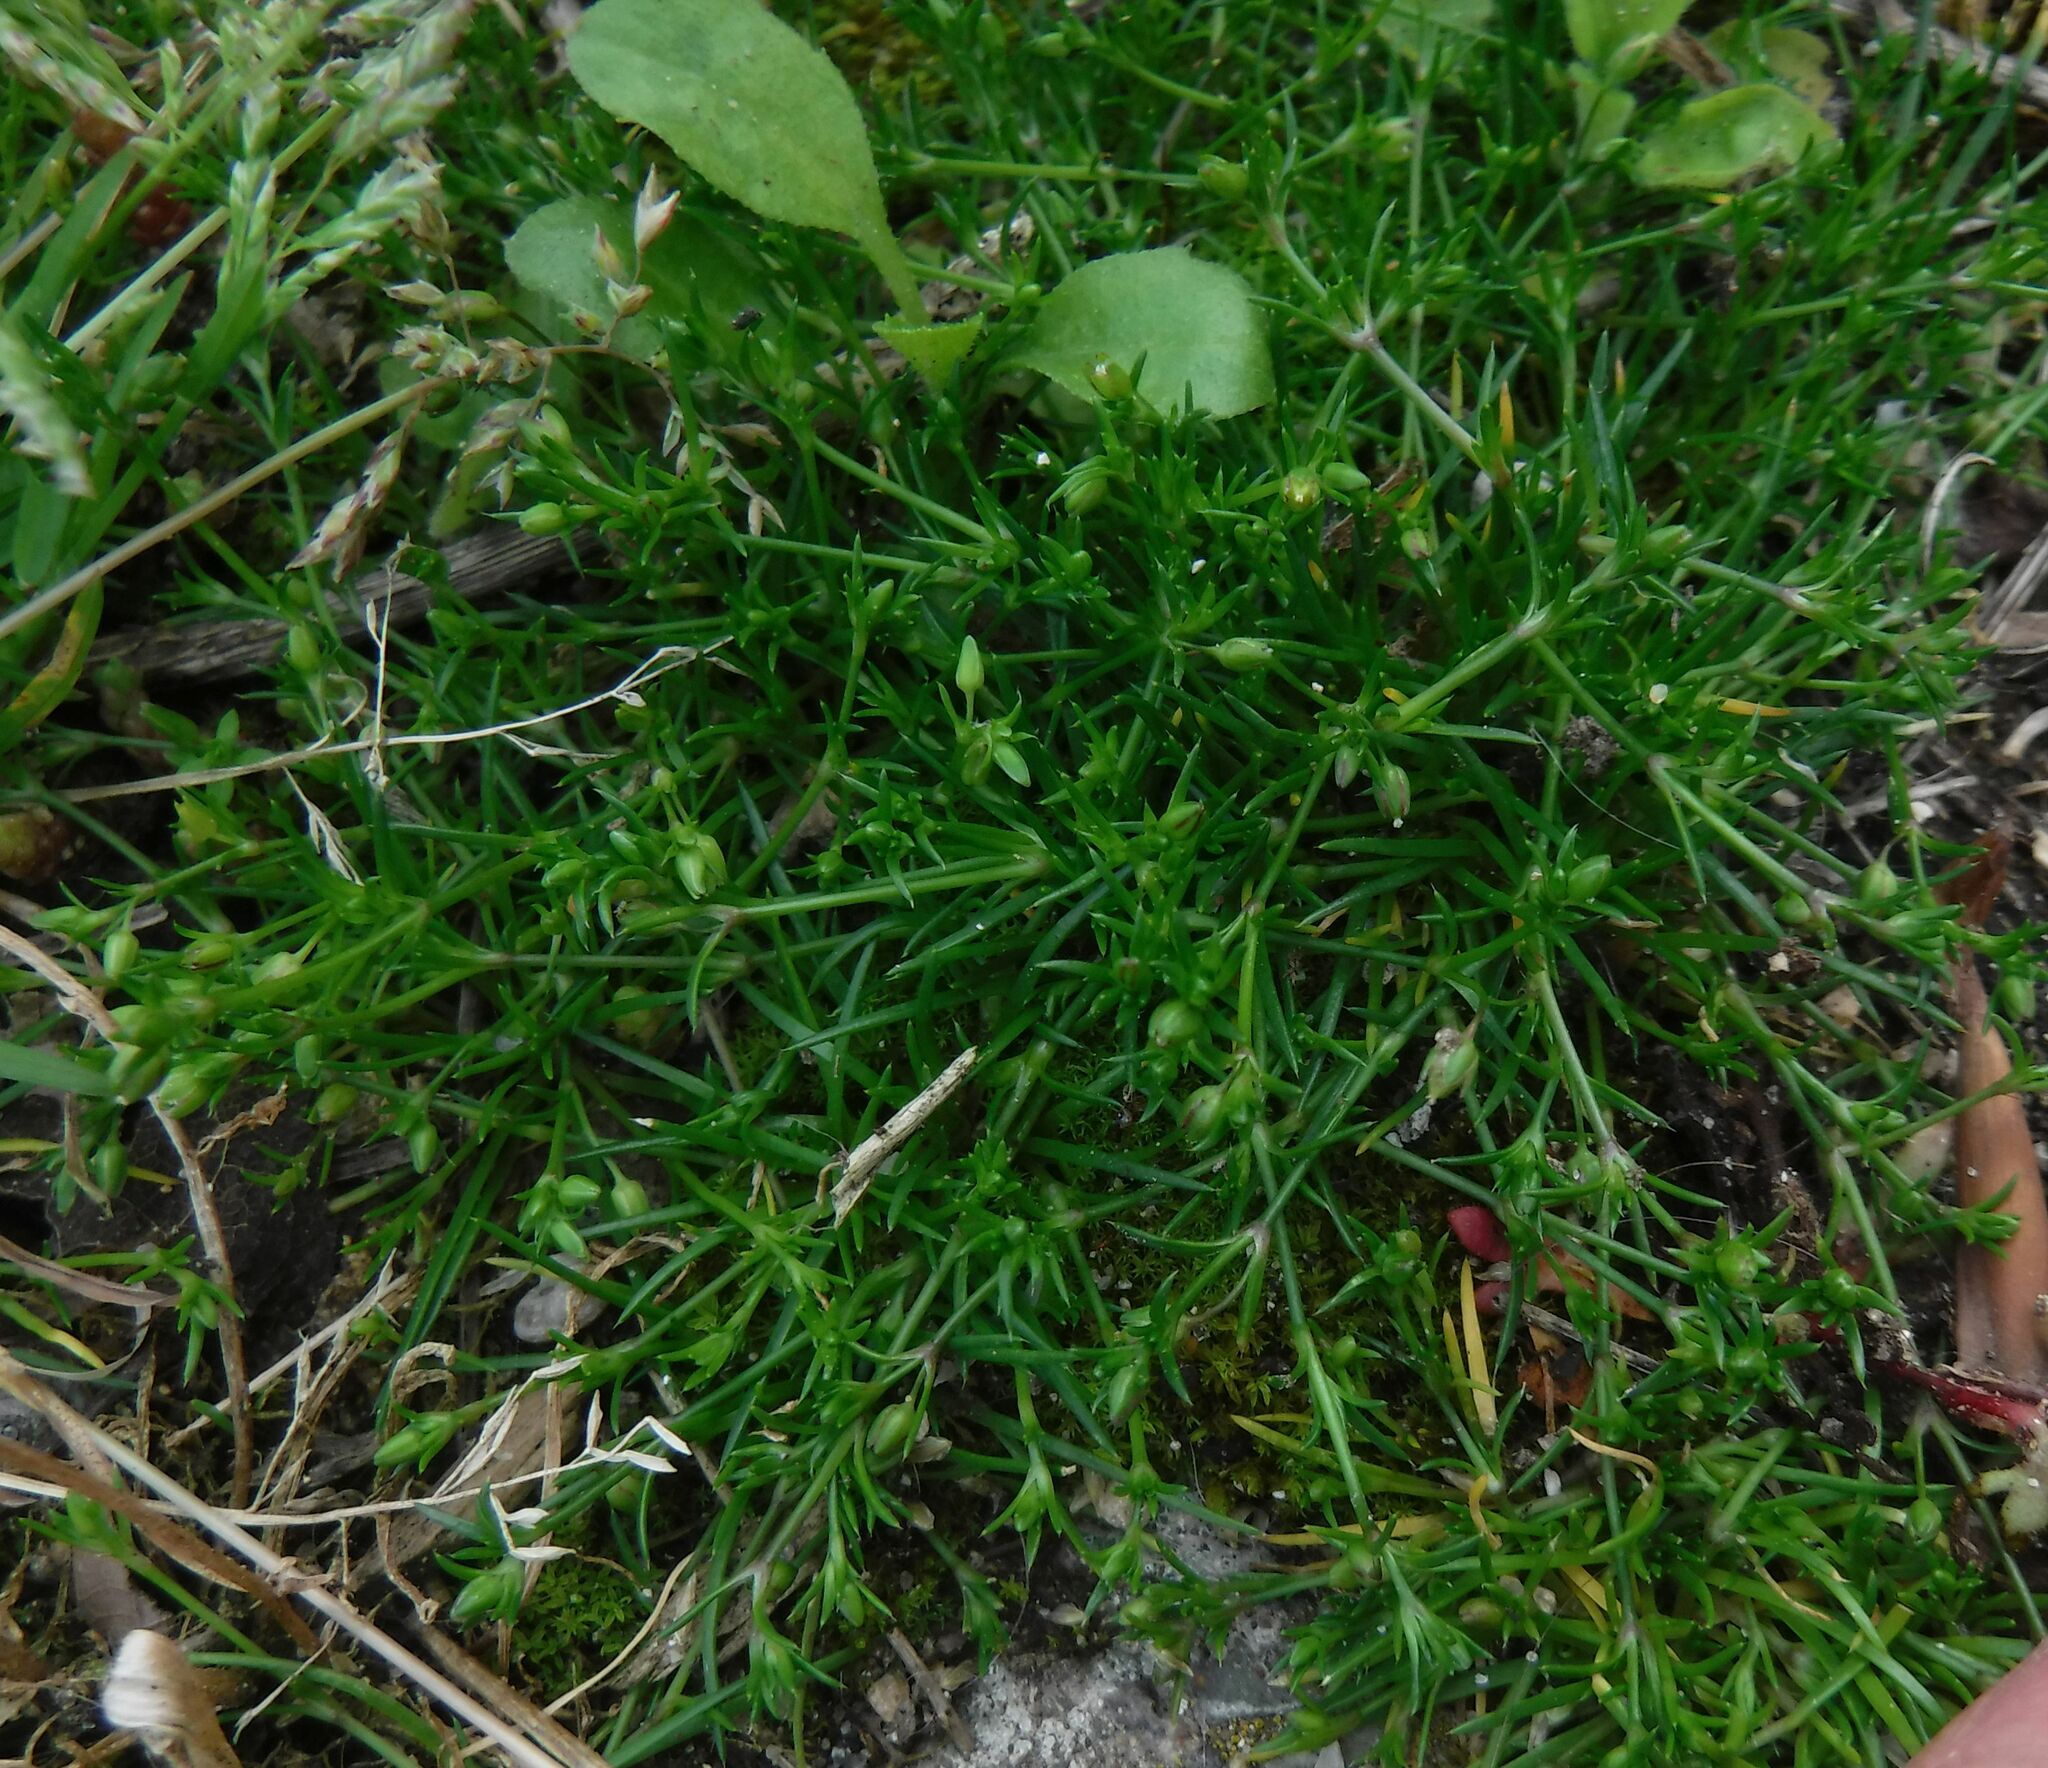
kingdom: Plantae
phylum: Tracheophyta
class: Magnoliopsida
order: Caryophyllales
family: Caryophyllaceae
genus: Sagina
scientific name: Sagina procumbens
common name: Procumbent pearlwort
